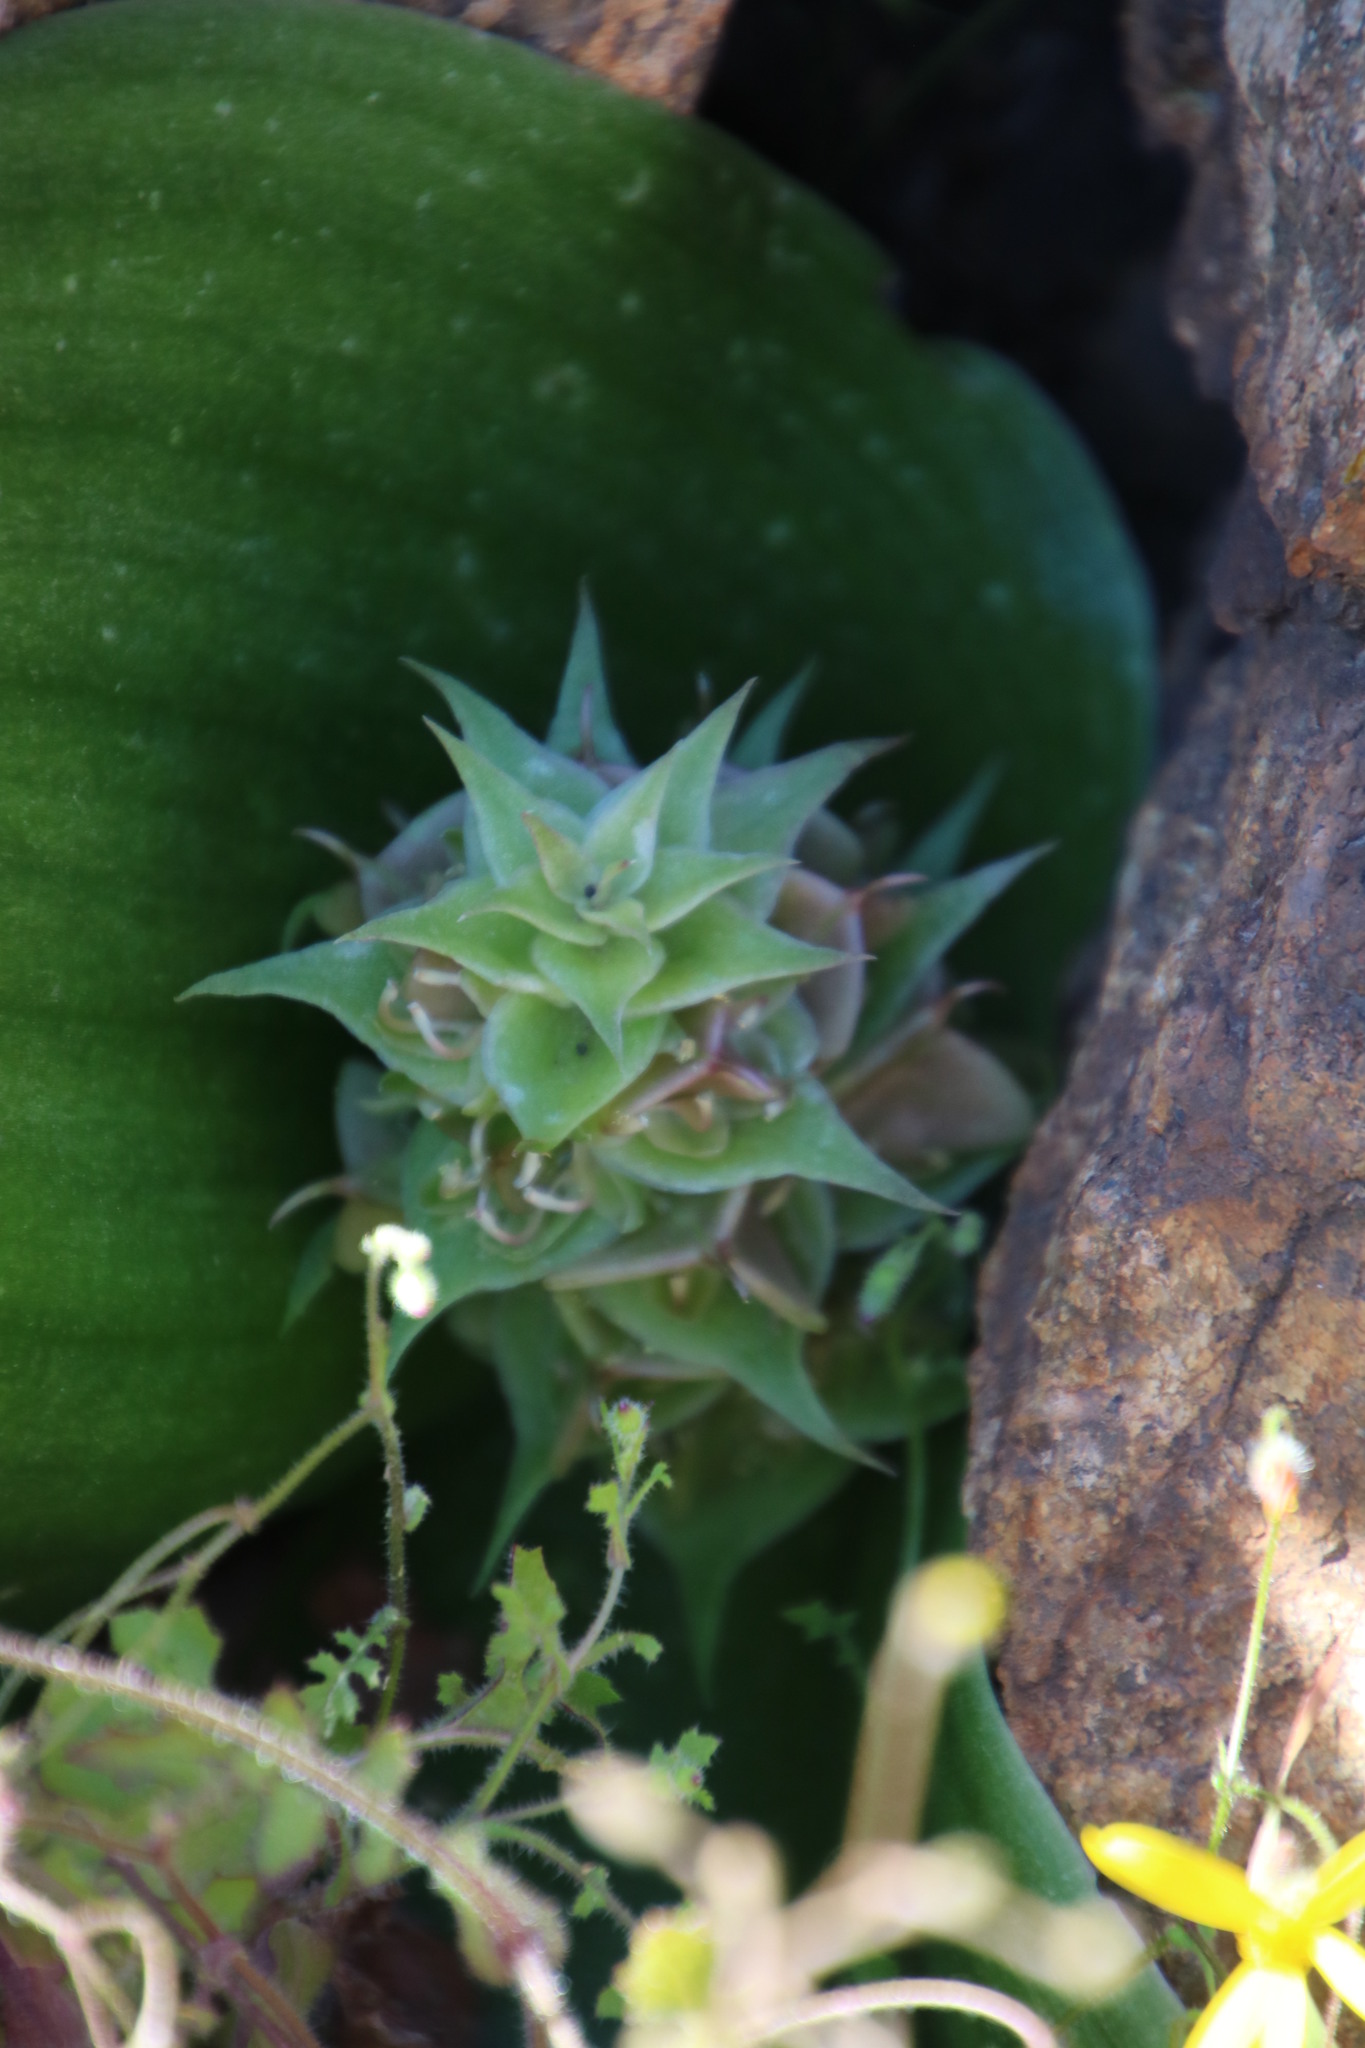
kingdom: Plantae
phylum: Tracheophyta
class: Liliopsida
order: Asparagales
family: Asparagaceae
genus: Massonia
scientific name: Massonia bifolia
